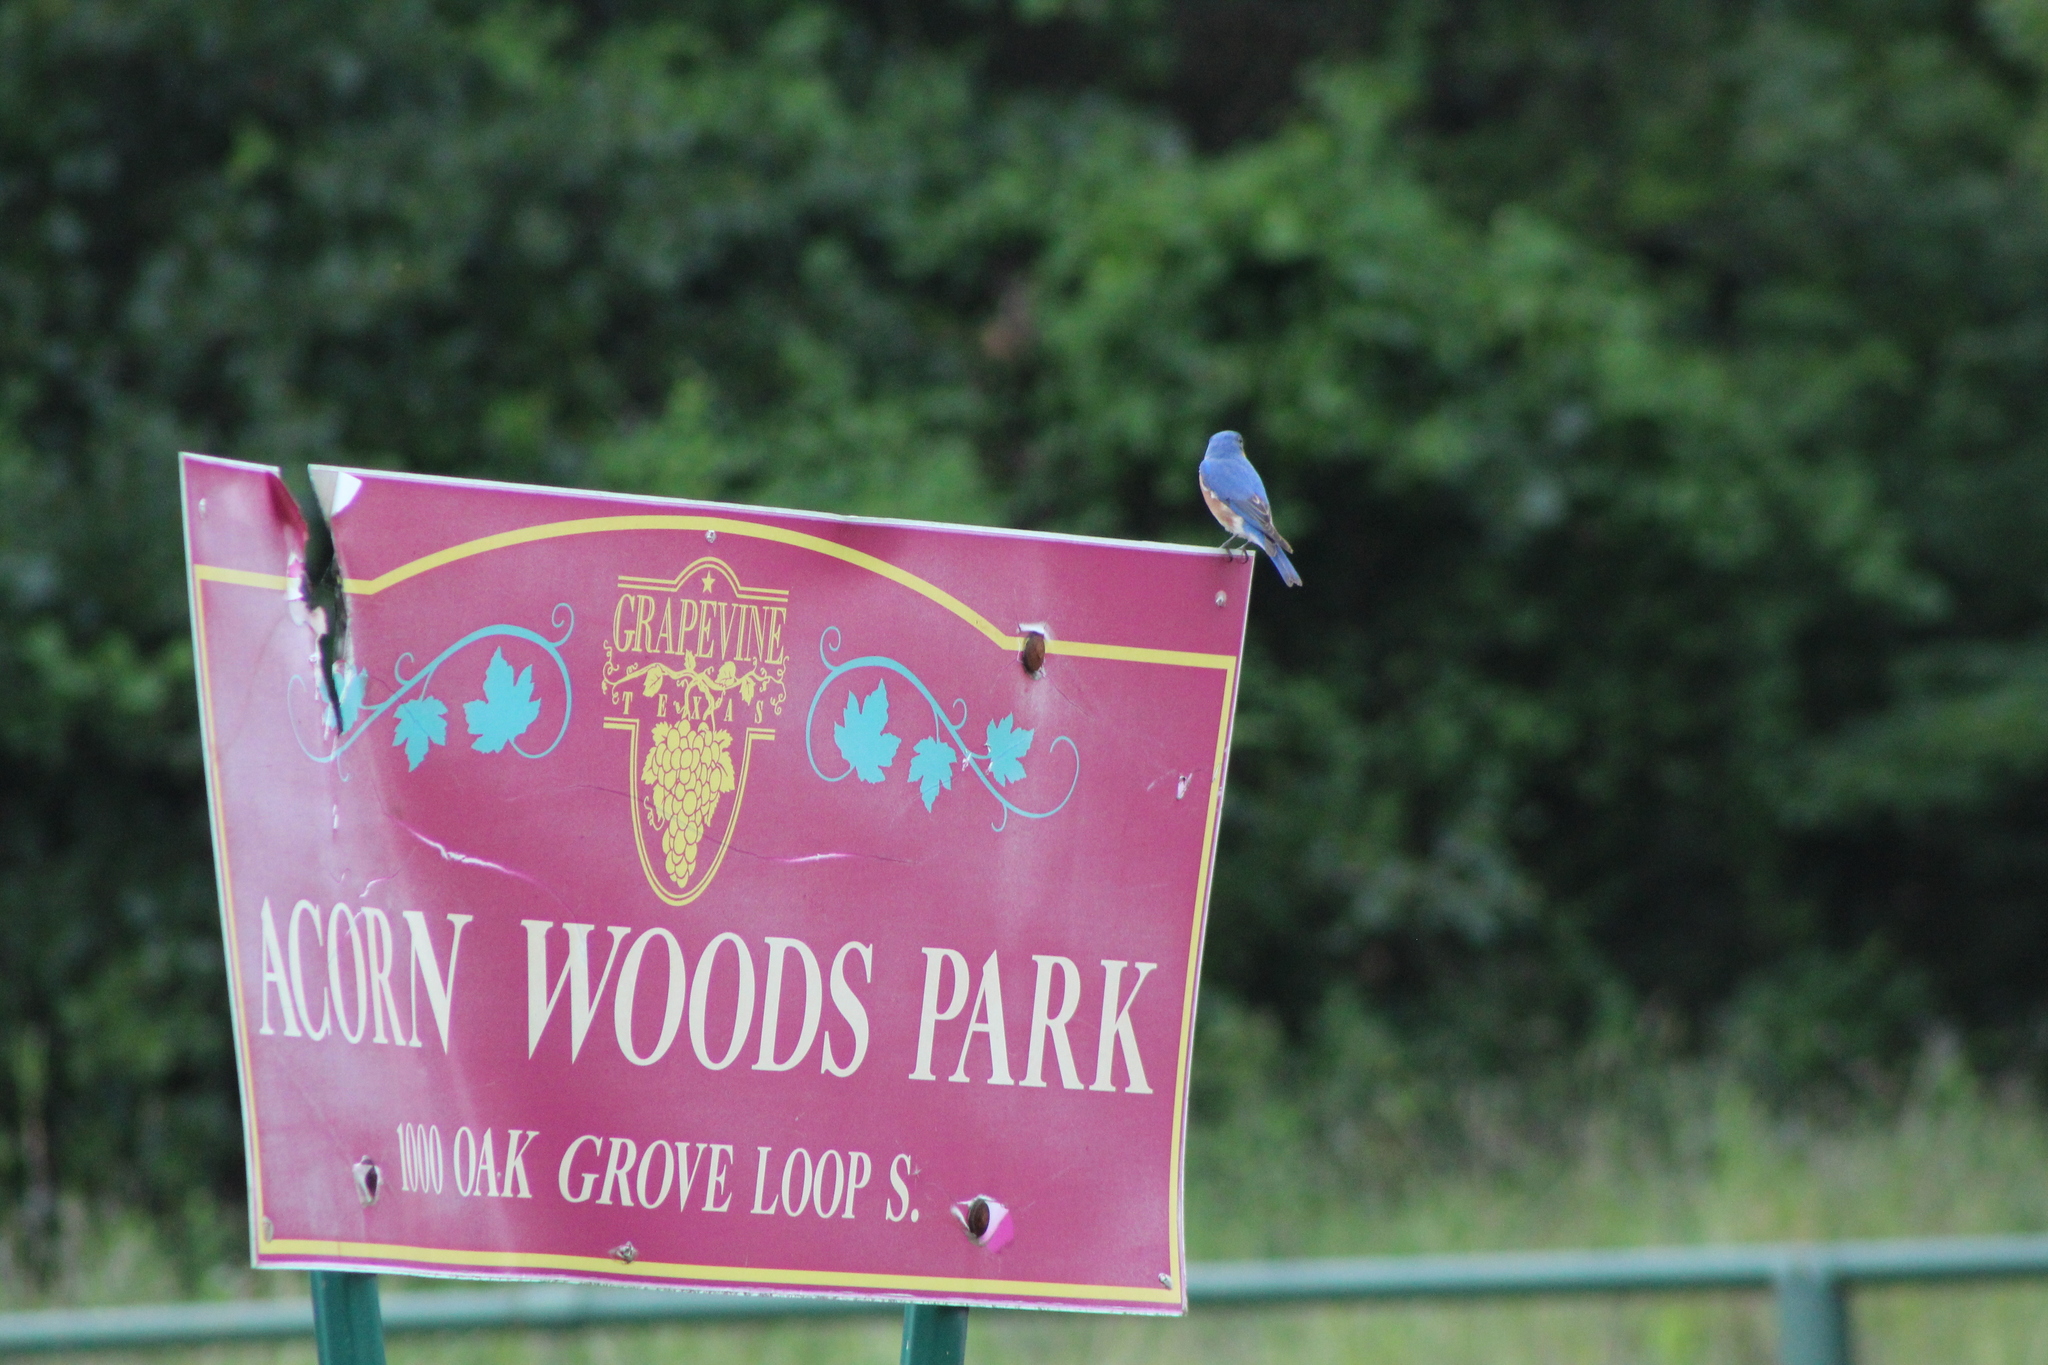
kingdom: Animalia
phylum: Chordata
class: Aves
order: Passeriformes
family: Turdidae
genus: Sialia
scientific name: Sialia sialis
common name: Eastern bluebird
